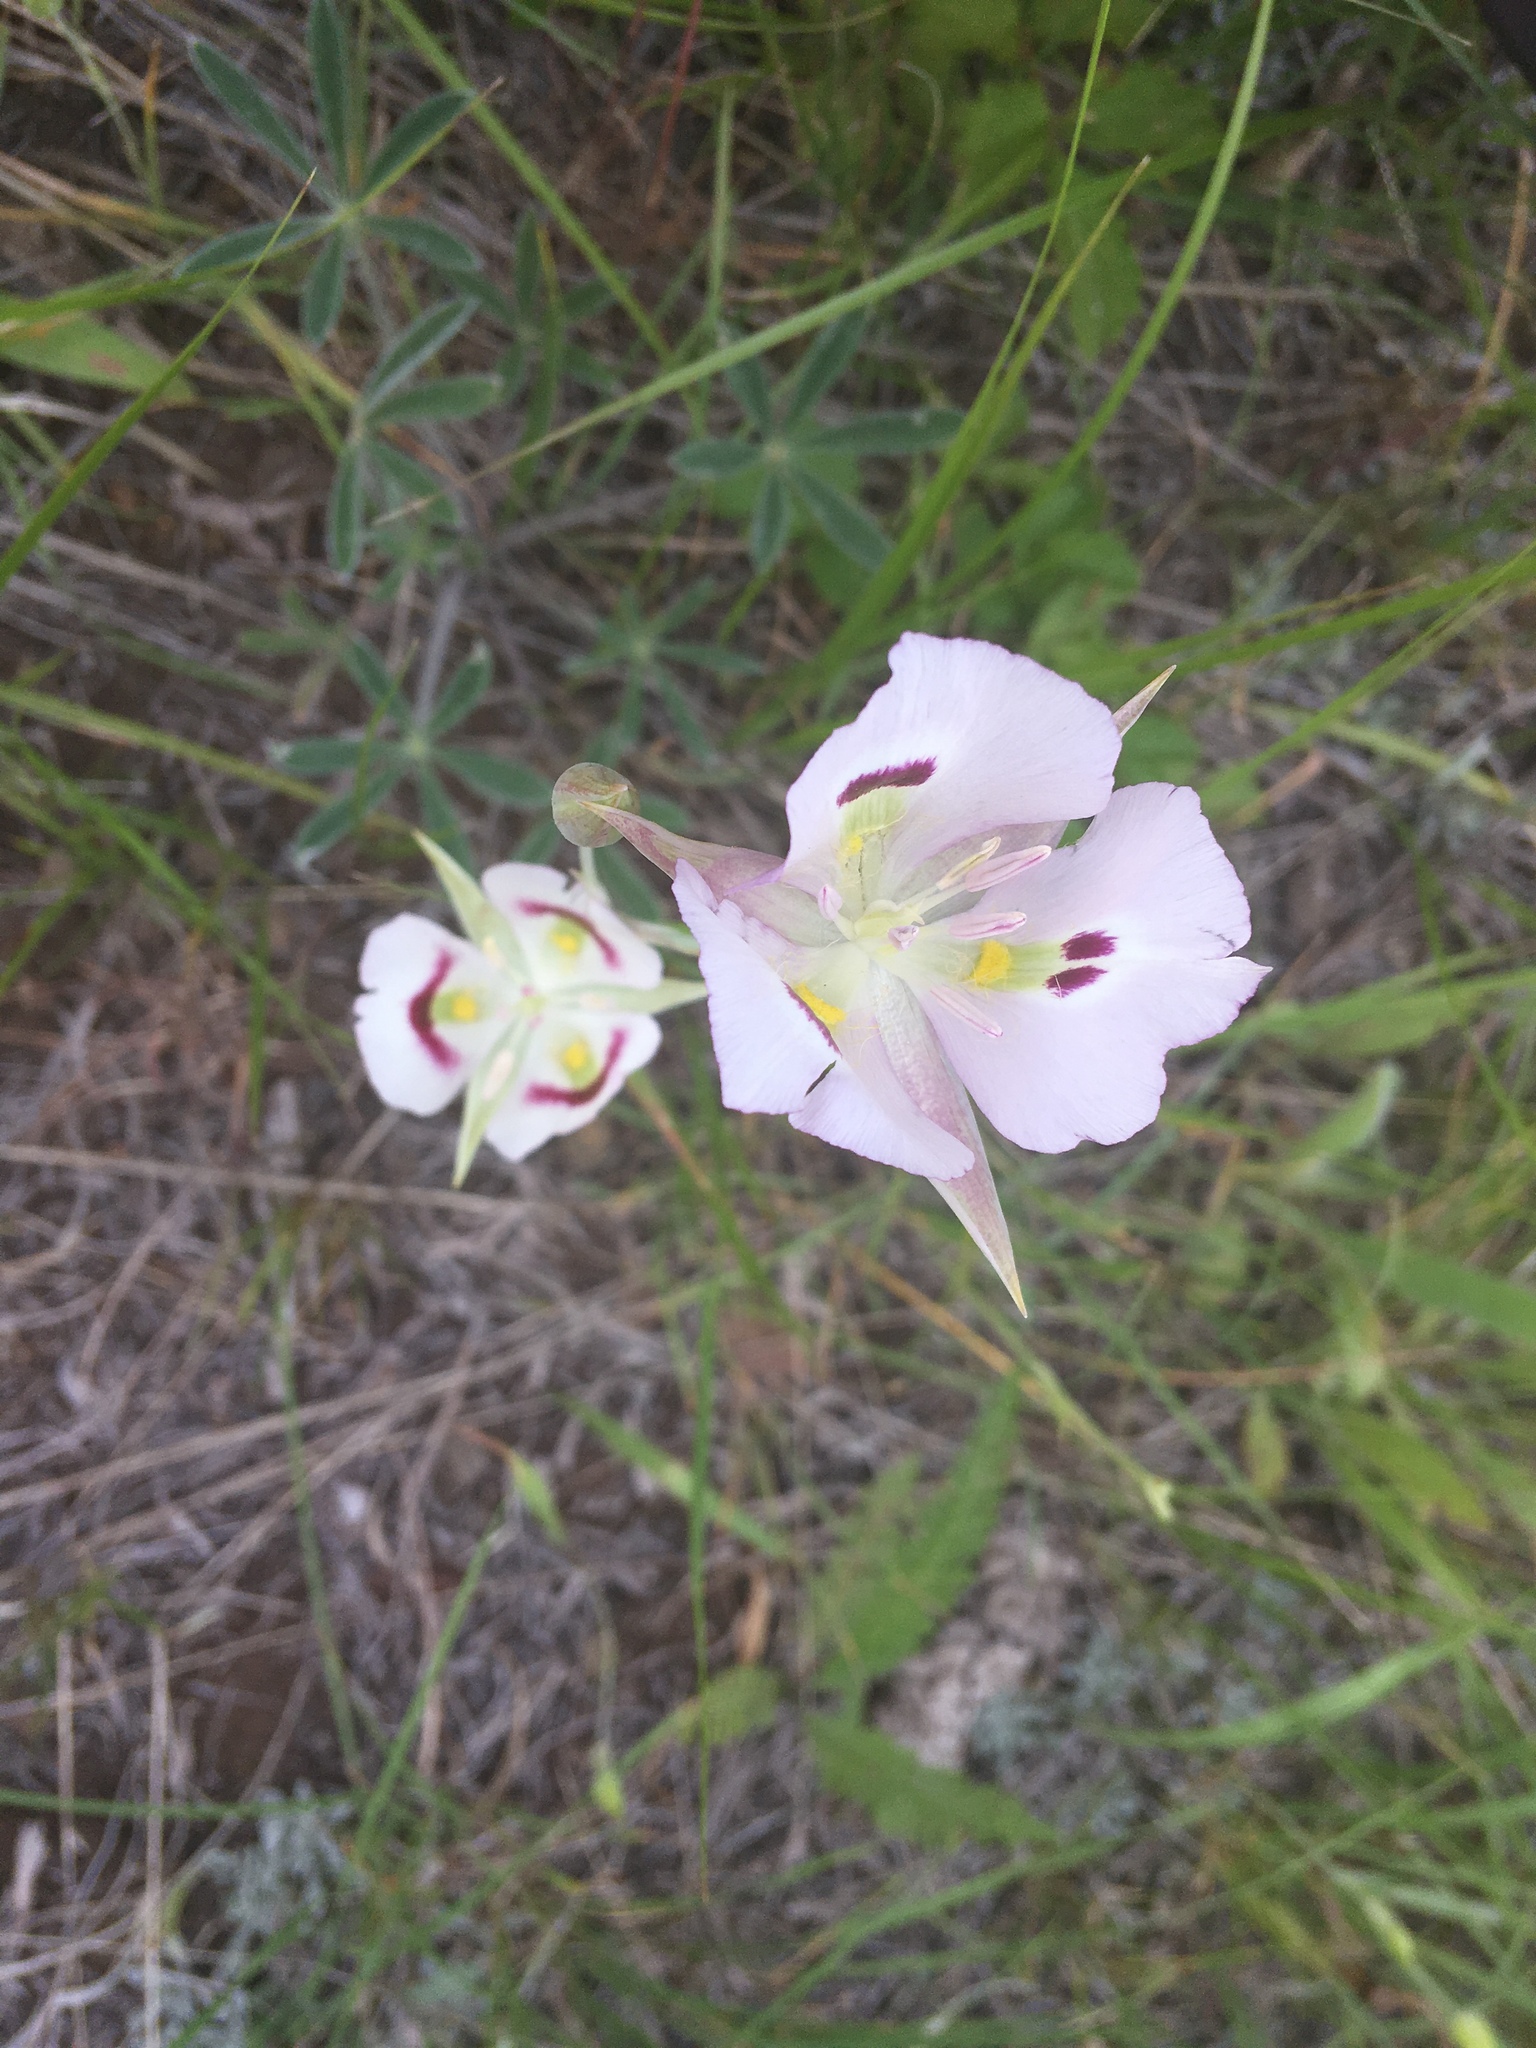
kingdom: Plantae
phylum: Tracheophyta
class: Liliopsida
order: Liliales
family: Liliaceae
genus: Calochortus
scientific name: Calochortus eurycarpus
